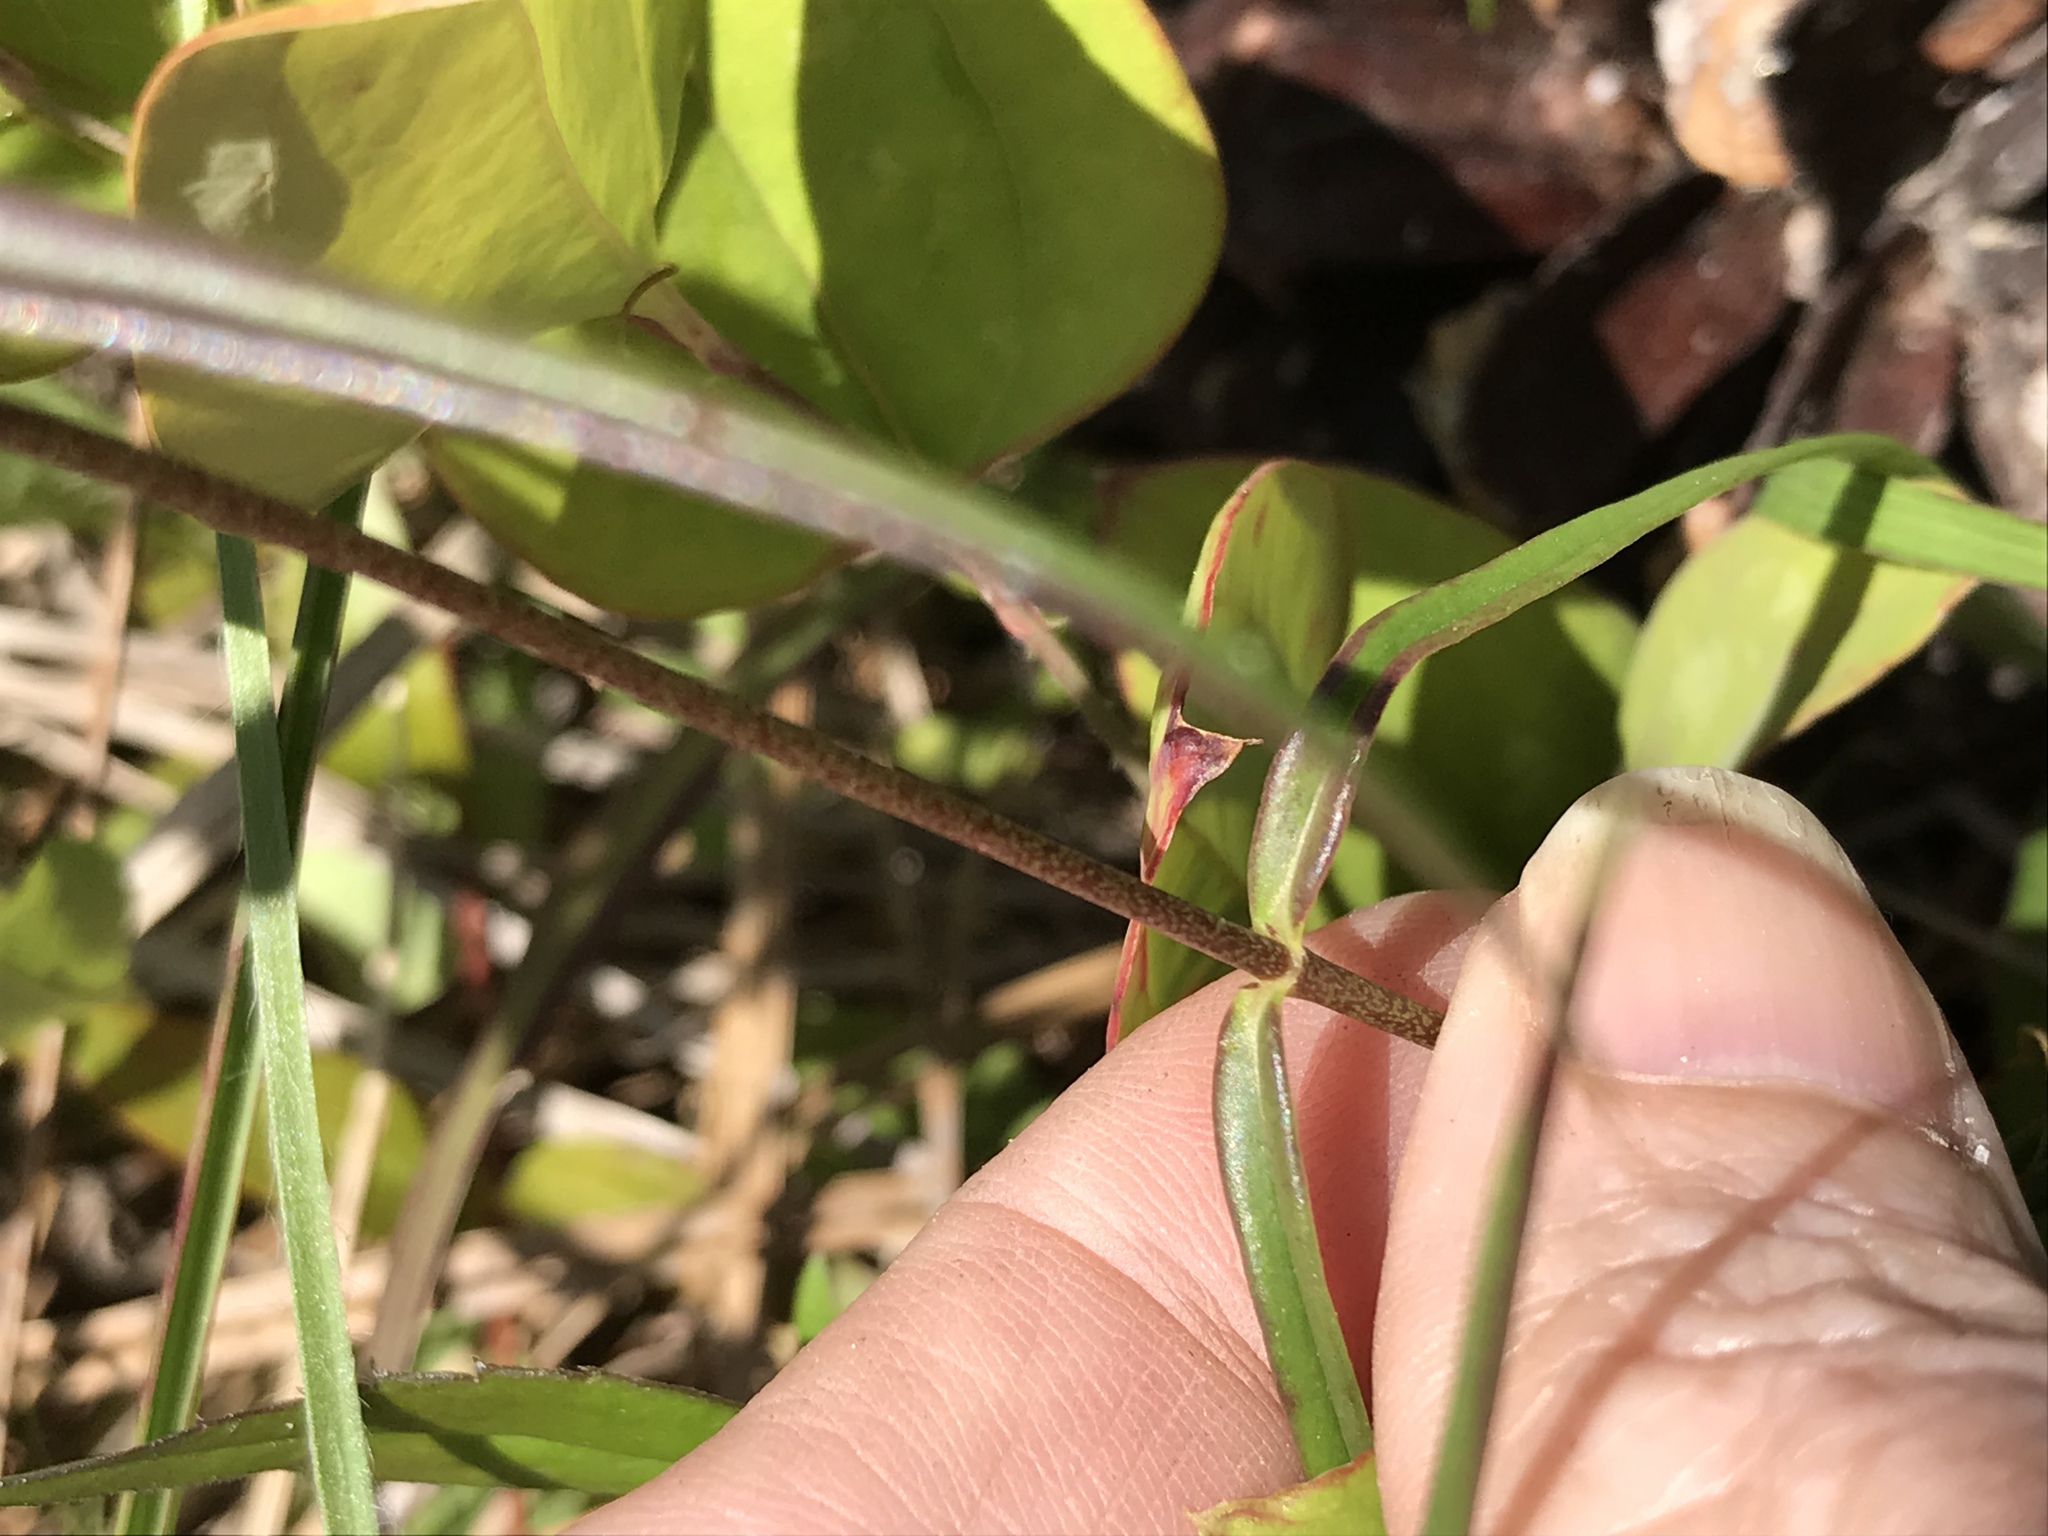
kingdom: Plantae
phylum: Tracheophyta
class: Magnoliopsida
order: Ericales
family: Polemoniaceae
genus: Phlox
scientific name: Phlox pilosa
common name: Prairie phlox
